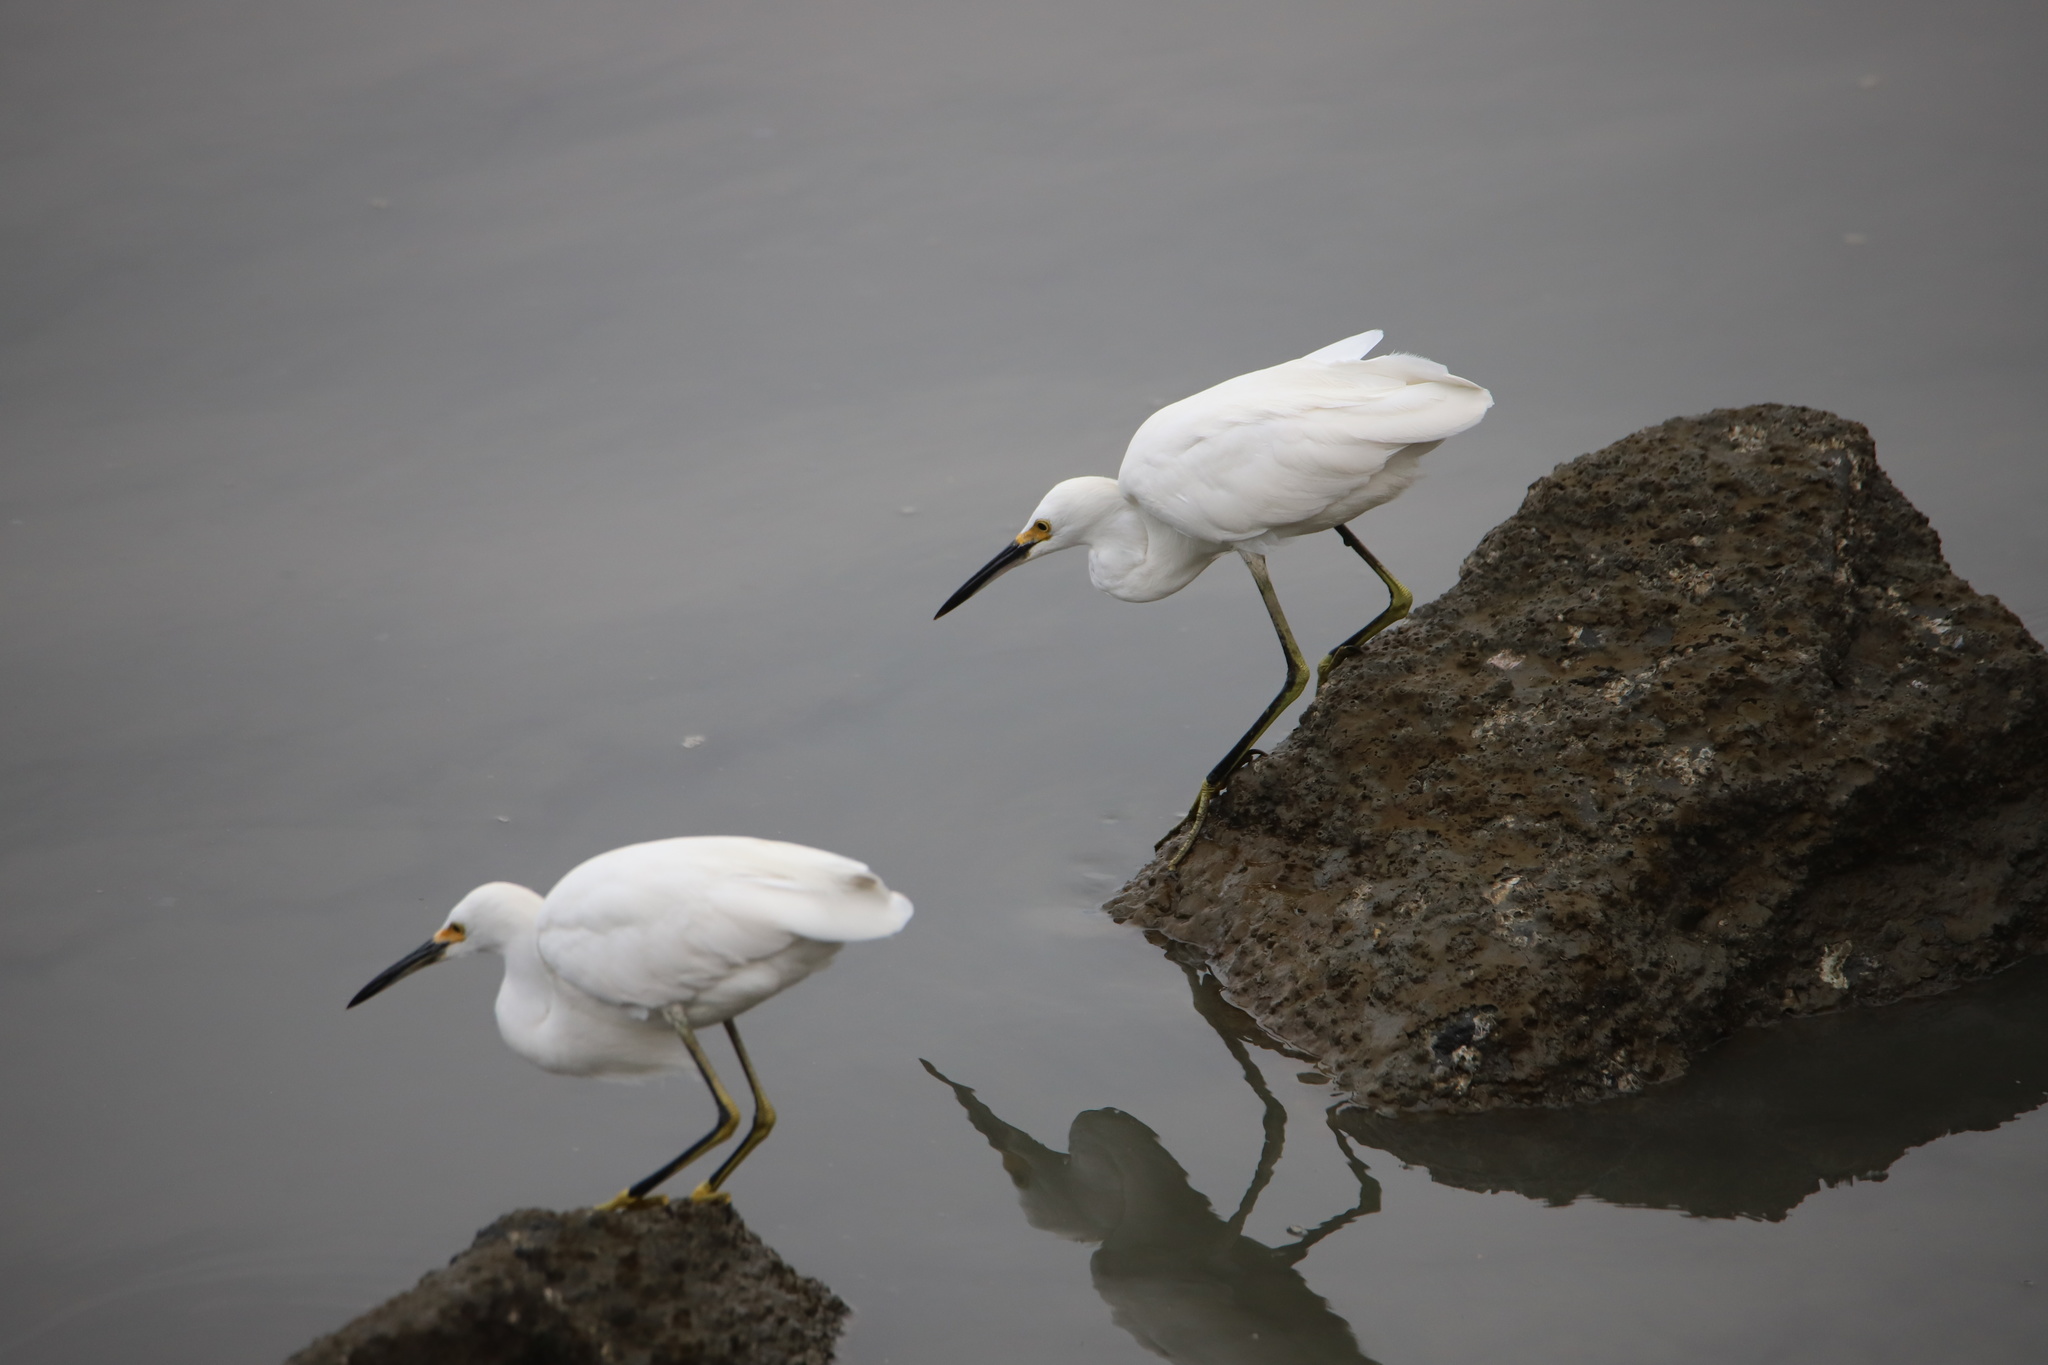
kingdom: Animalia
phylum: Chordata
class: Aves
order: Pelecaniformes
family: Ardeidae
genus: Egretta
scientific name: Egretta thula
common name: Snowy egret
